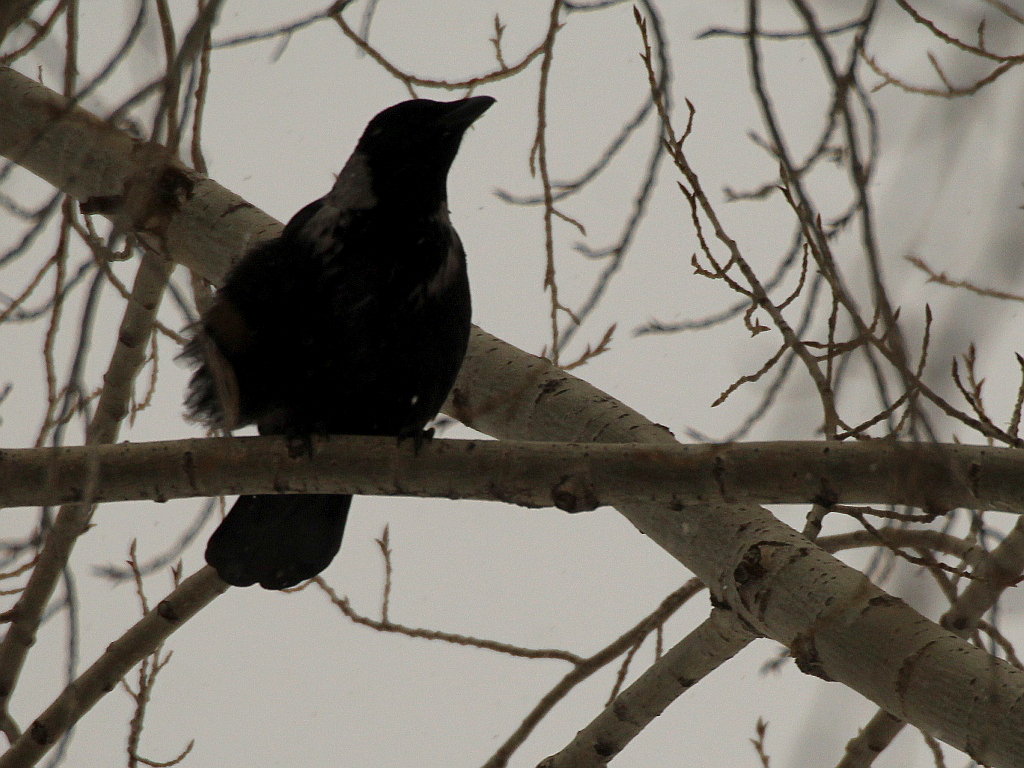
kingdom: Animalia
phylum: Chordata
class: Aves
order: Passeriformes
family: Corvidae
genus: Corvus
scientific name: Corvus
